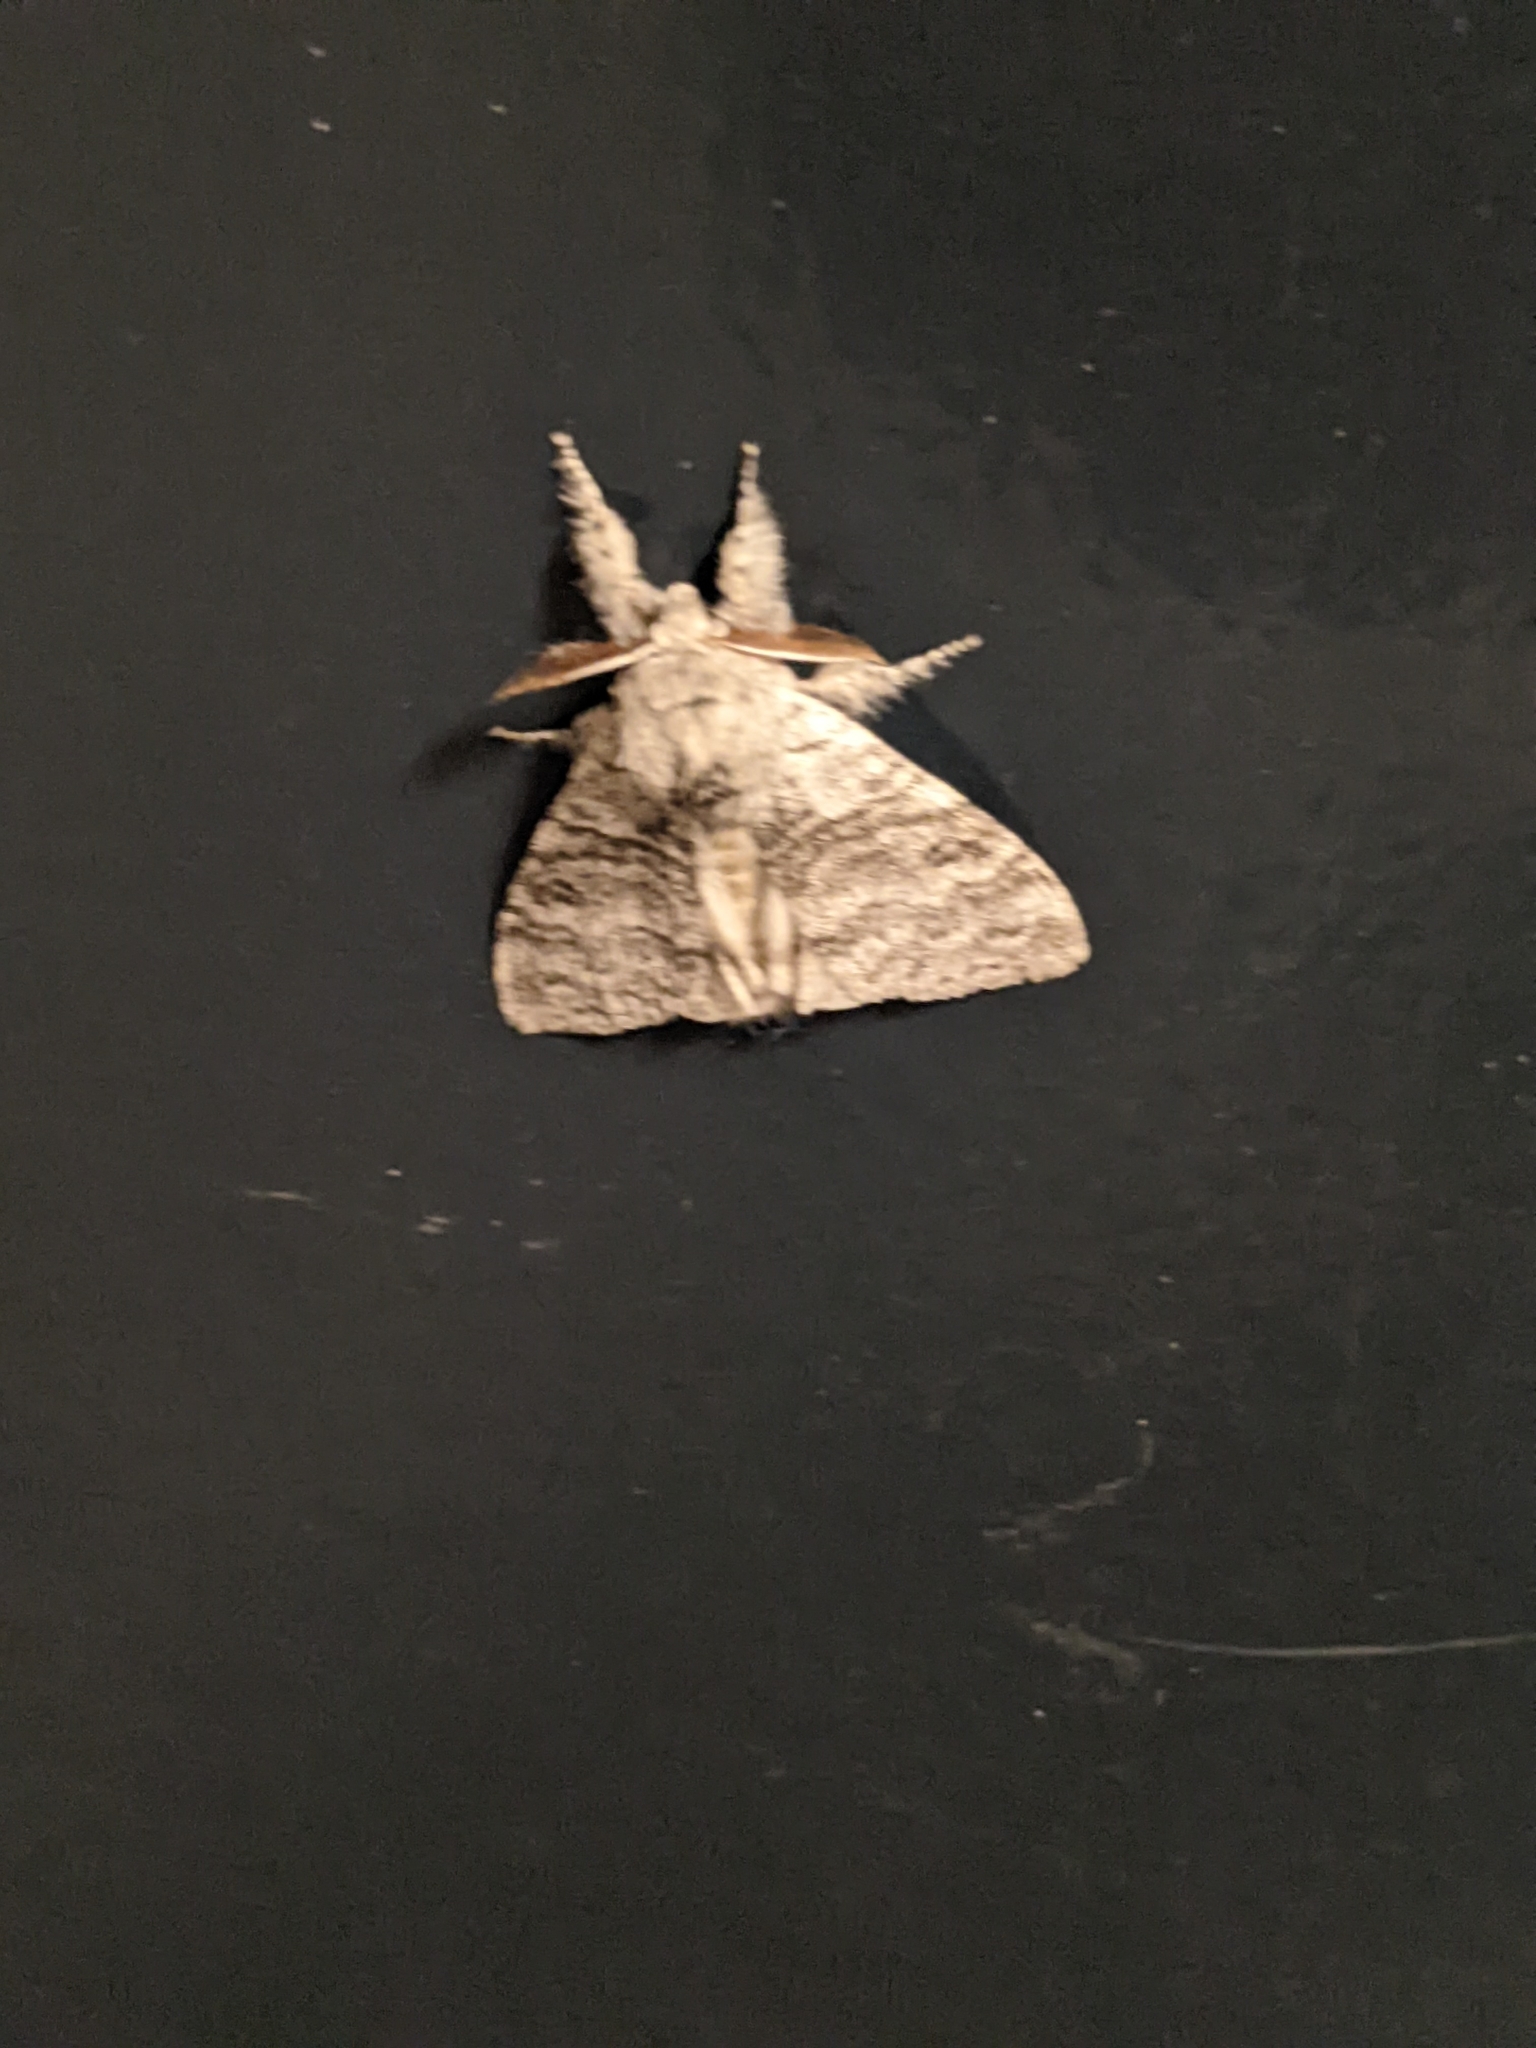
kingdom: Animalia
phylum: Arthropoda
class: Insecta
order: Lepidoptera
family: Erebidae
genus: Calliteara
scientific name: Calliteara pudibunda
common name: Pale tussock
